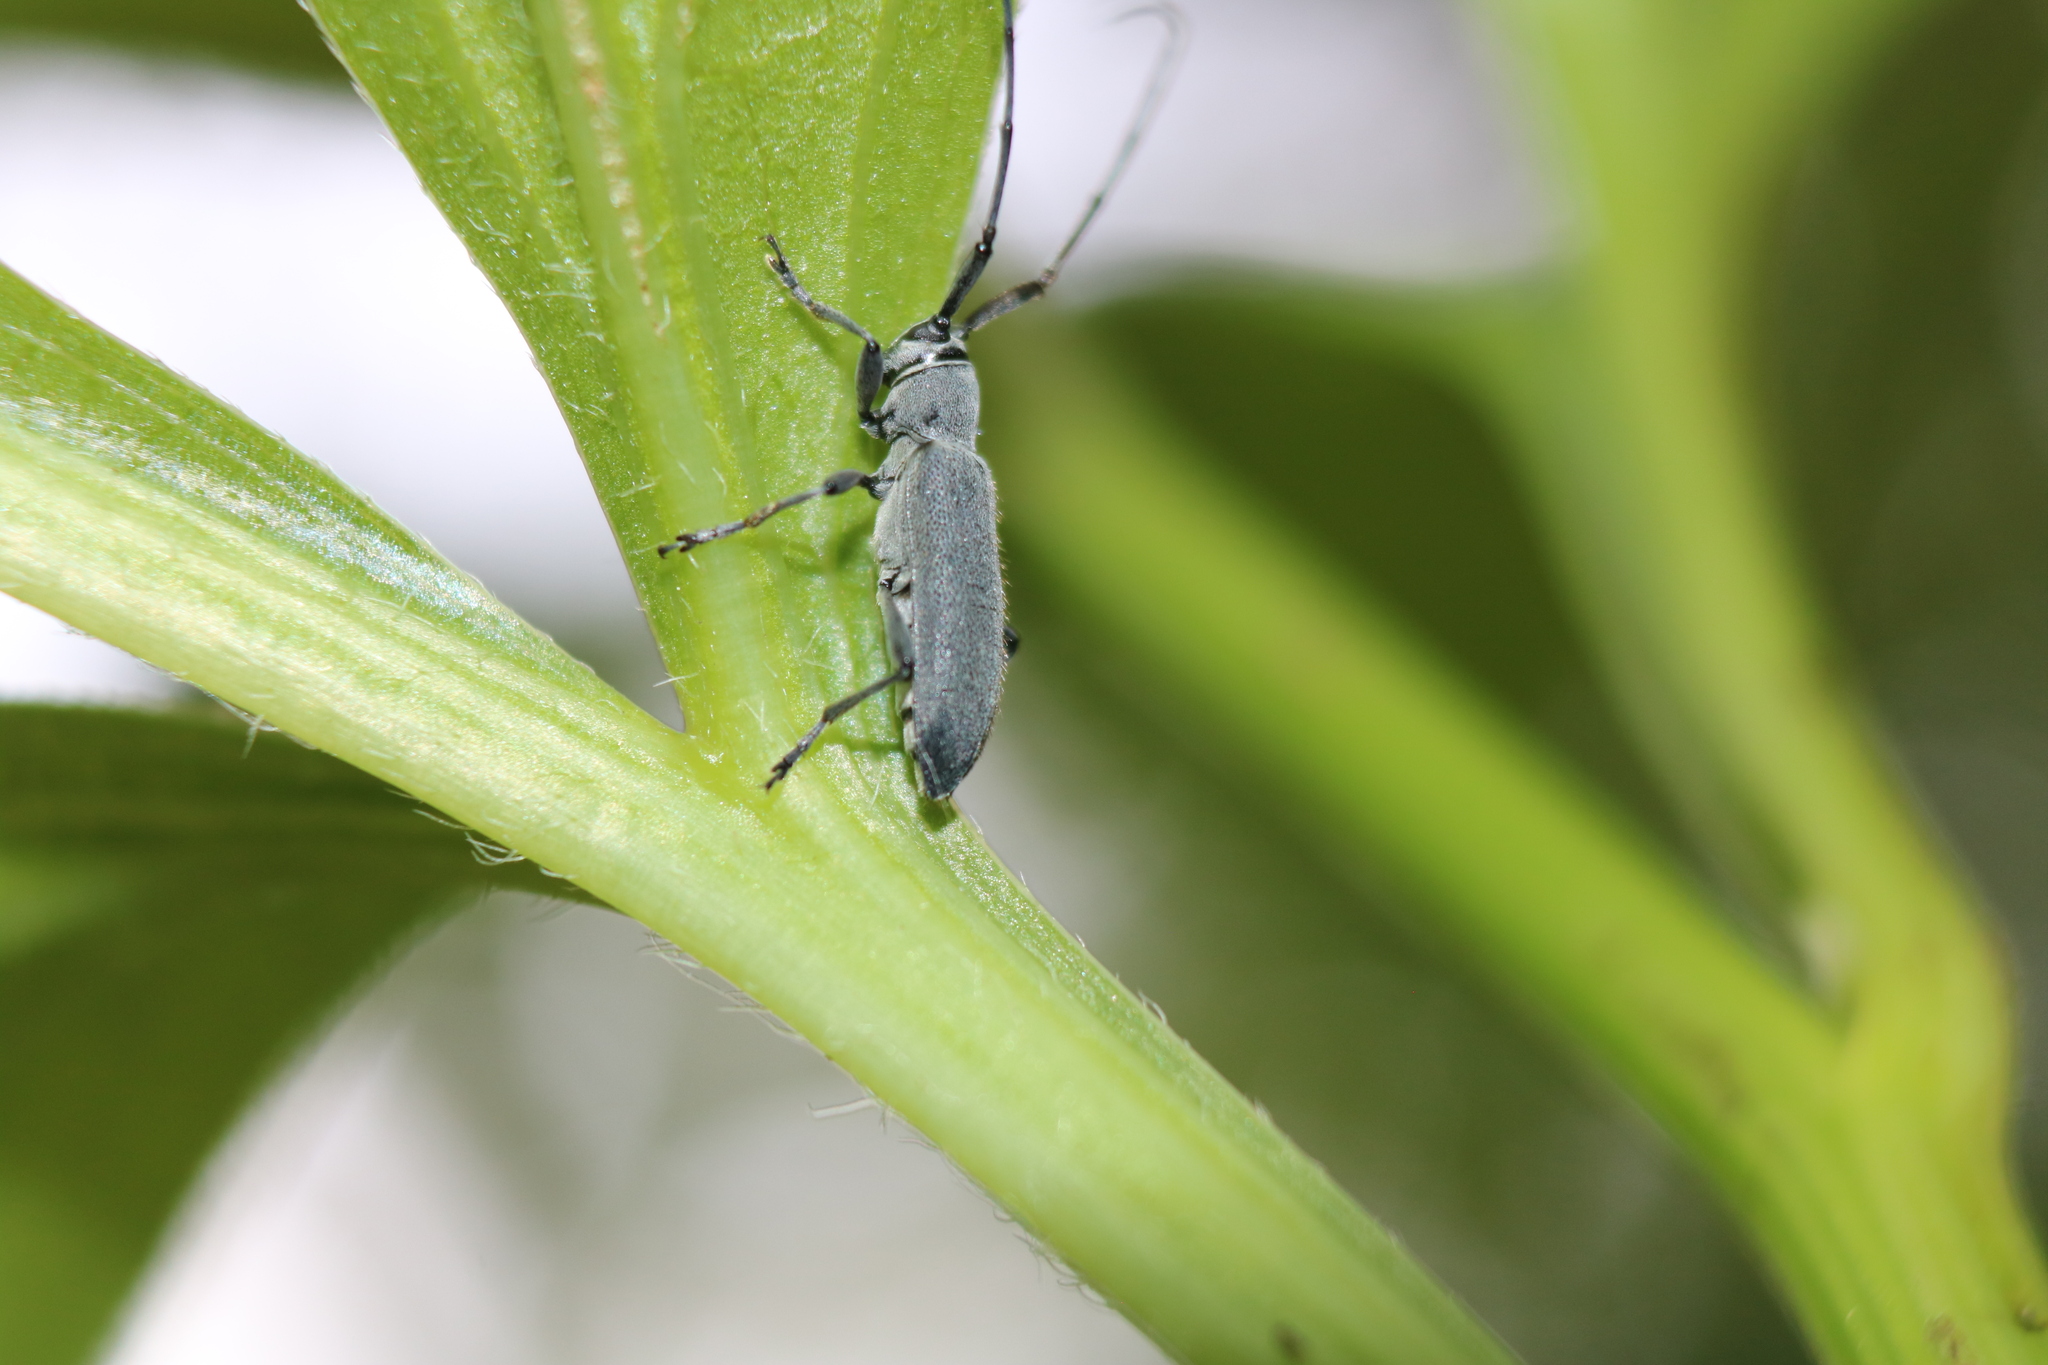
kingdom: Animalia
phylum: Arthropoda
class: Insecta
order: Coleoptera
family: Cerambycidae
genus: Dectes
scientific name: Dectes sayi
